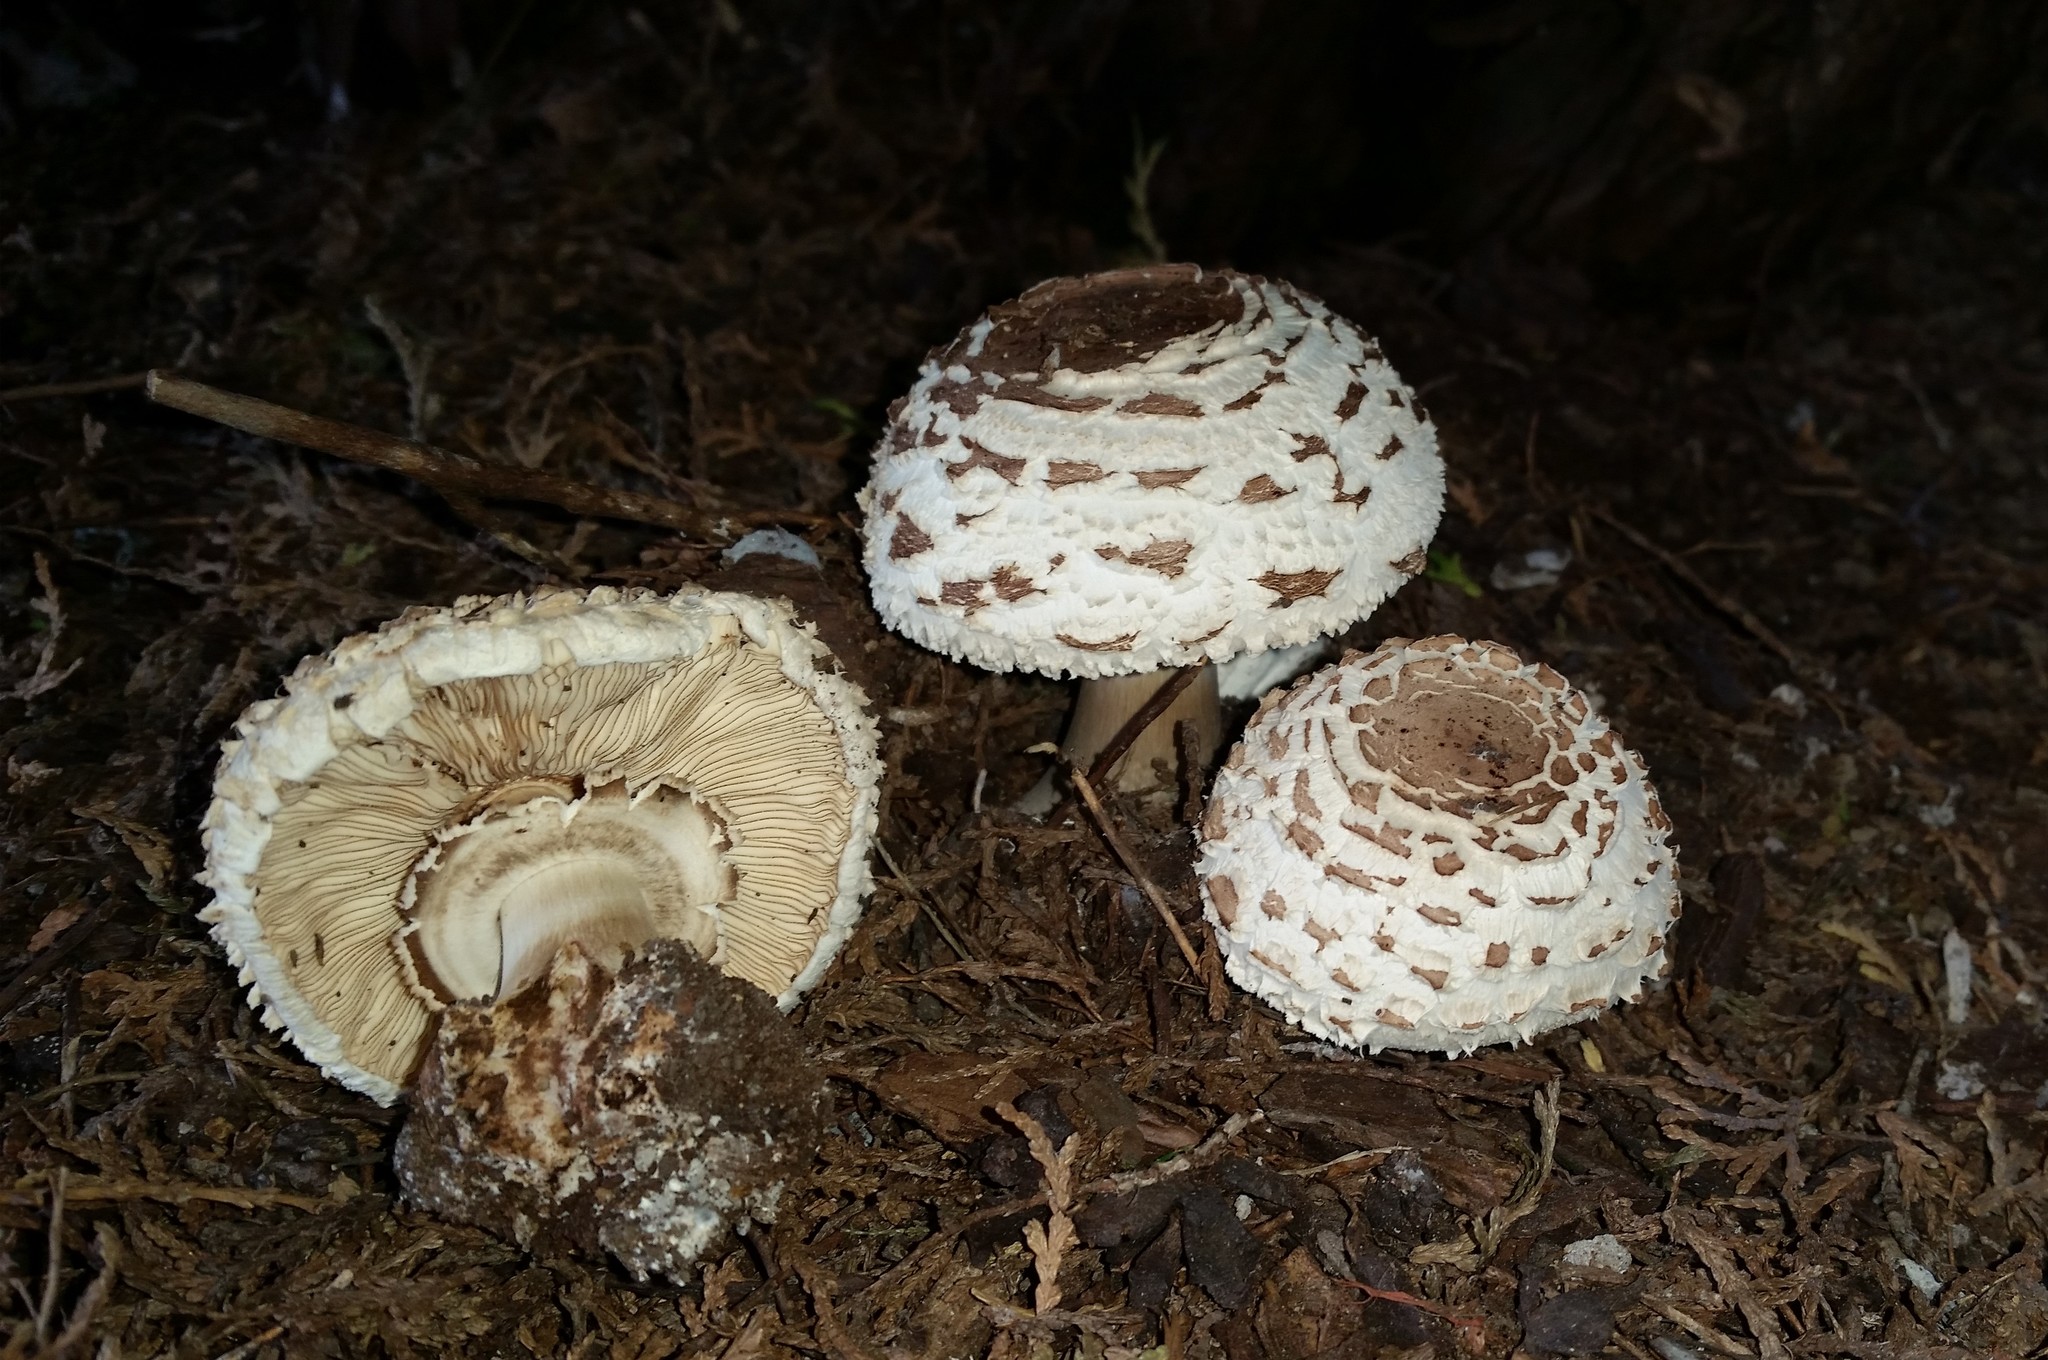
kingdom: Fungi
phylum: Basidiomycota
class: Agaricomycetes
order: Agaricales
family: Agaricaceae
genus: Chlorophyllum
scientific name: Chlorophyllum rhacodes
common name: Shaggy parasol
